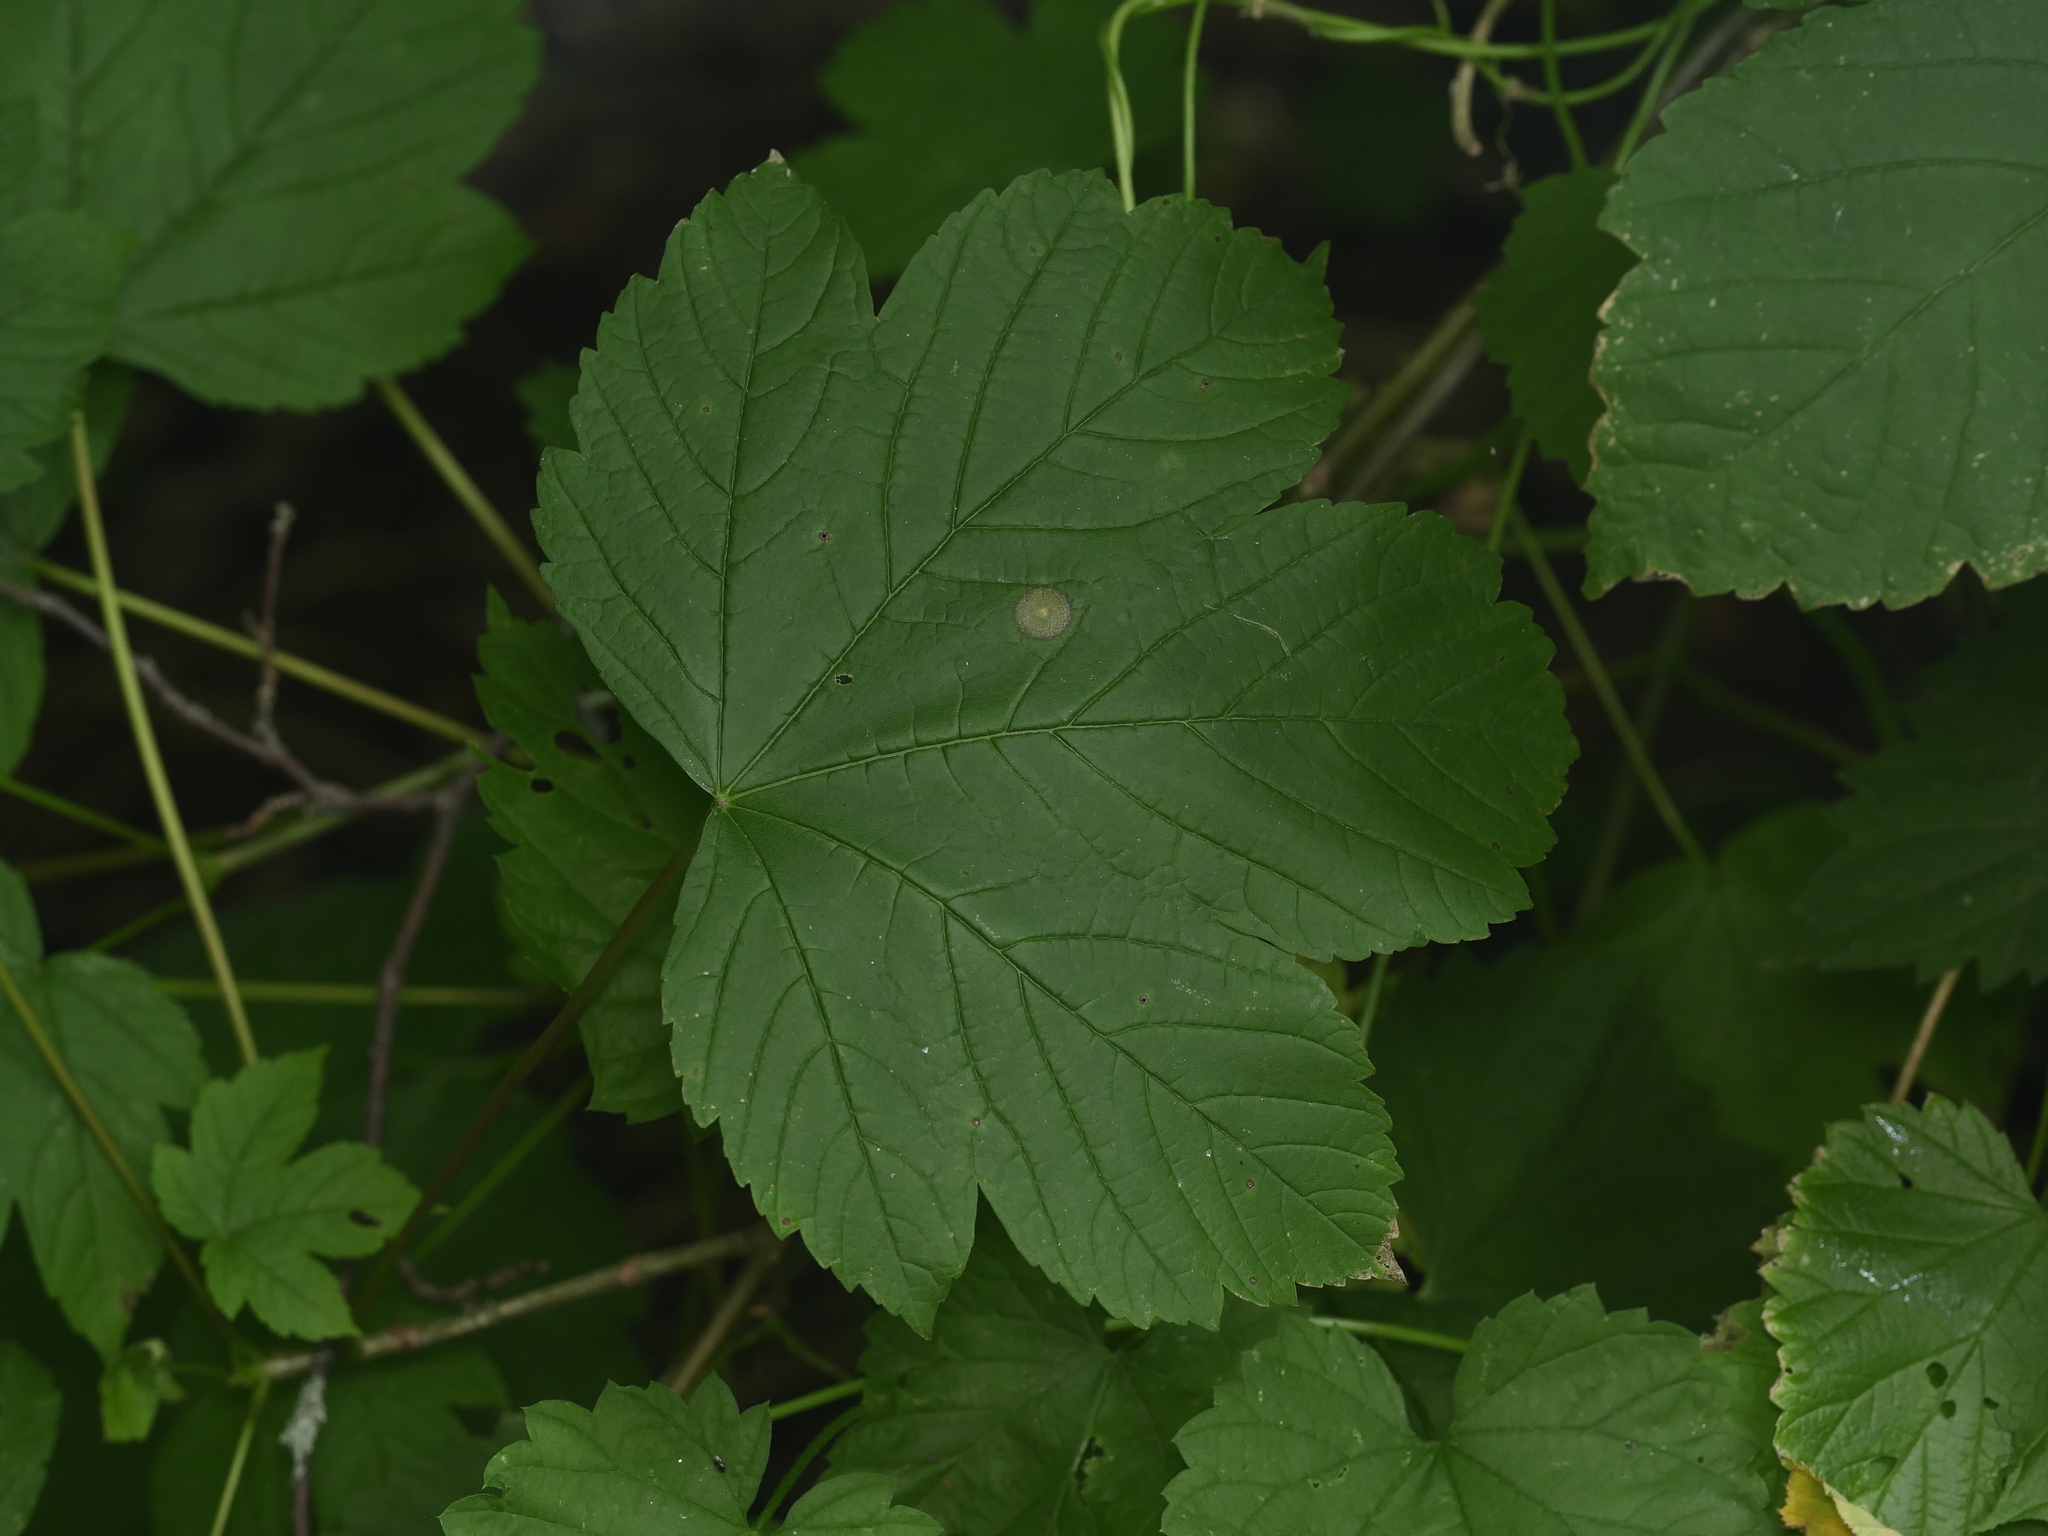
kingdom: Plantae
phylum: Tracheophyta
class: Magnoliopsida
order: Sapindales
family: Sapindaceae
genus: Acer
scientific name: Acer pseudoplatanus
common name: Sycamore
